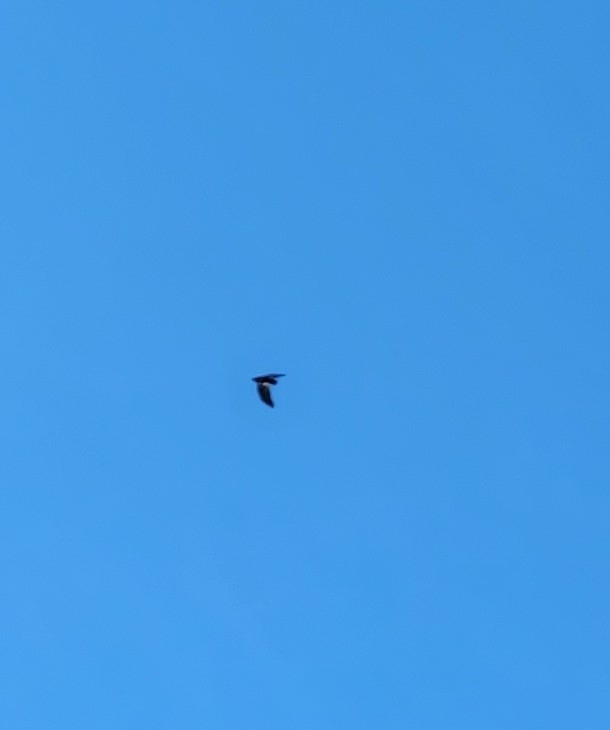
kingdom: Animalia
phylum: Chordata
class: Aves
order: Passeriformes
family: Corvidae
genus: Corvus
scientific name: Corvus brachyrhynchos
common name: American crow
